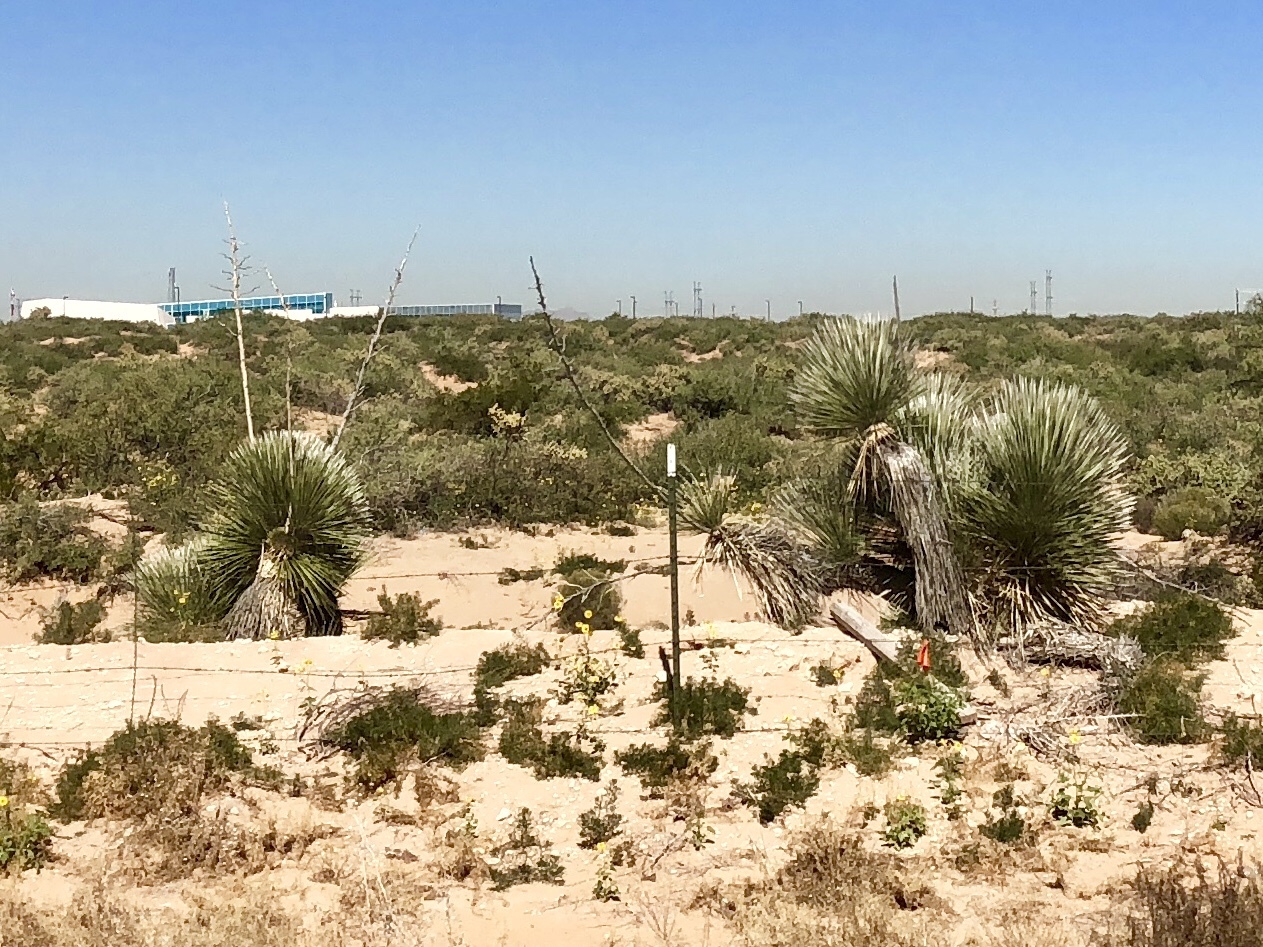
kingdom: Plantae
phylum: Tracheophyta
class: Liliopsida
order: Asparagales
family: Asparagaceae
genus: Yucca
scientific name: Yucca elata
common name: Palmella
